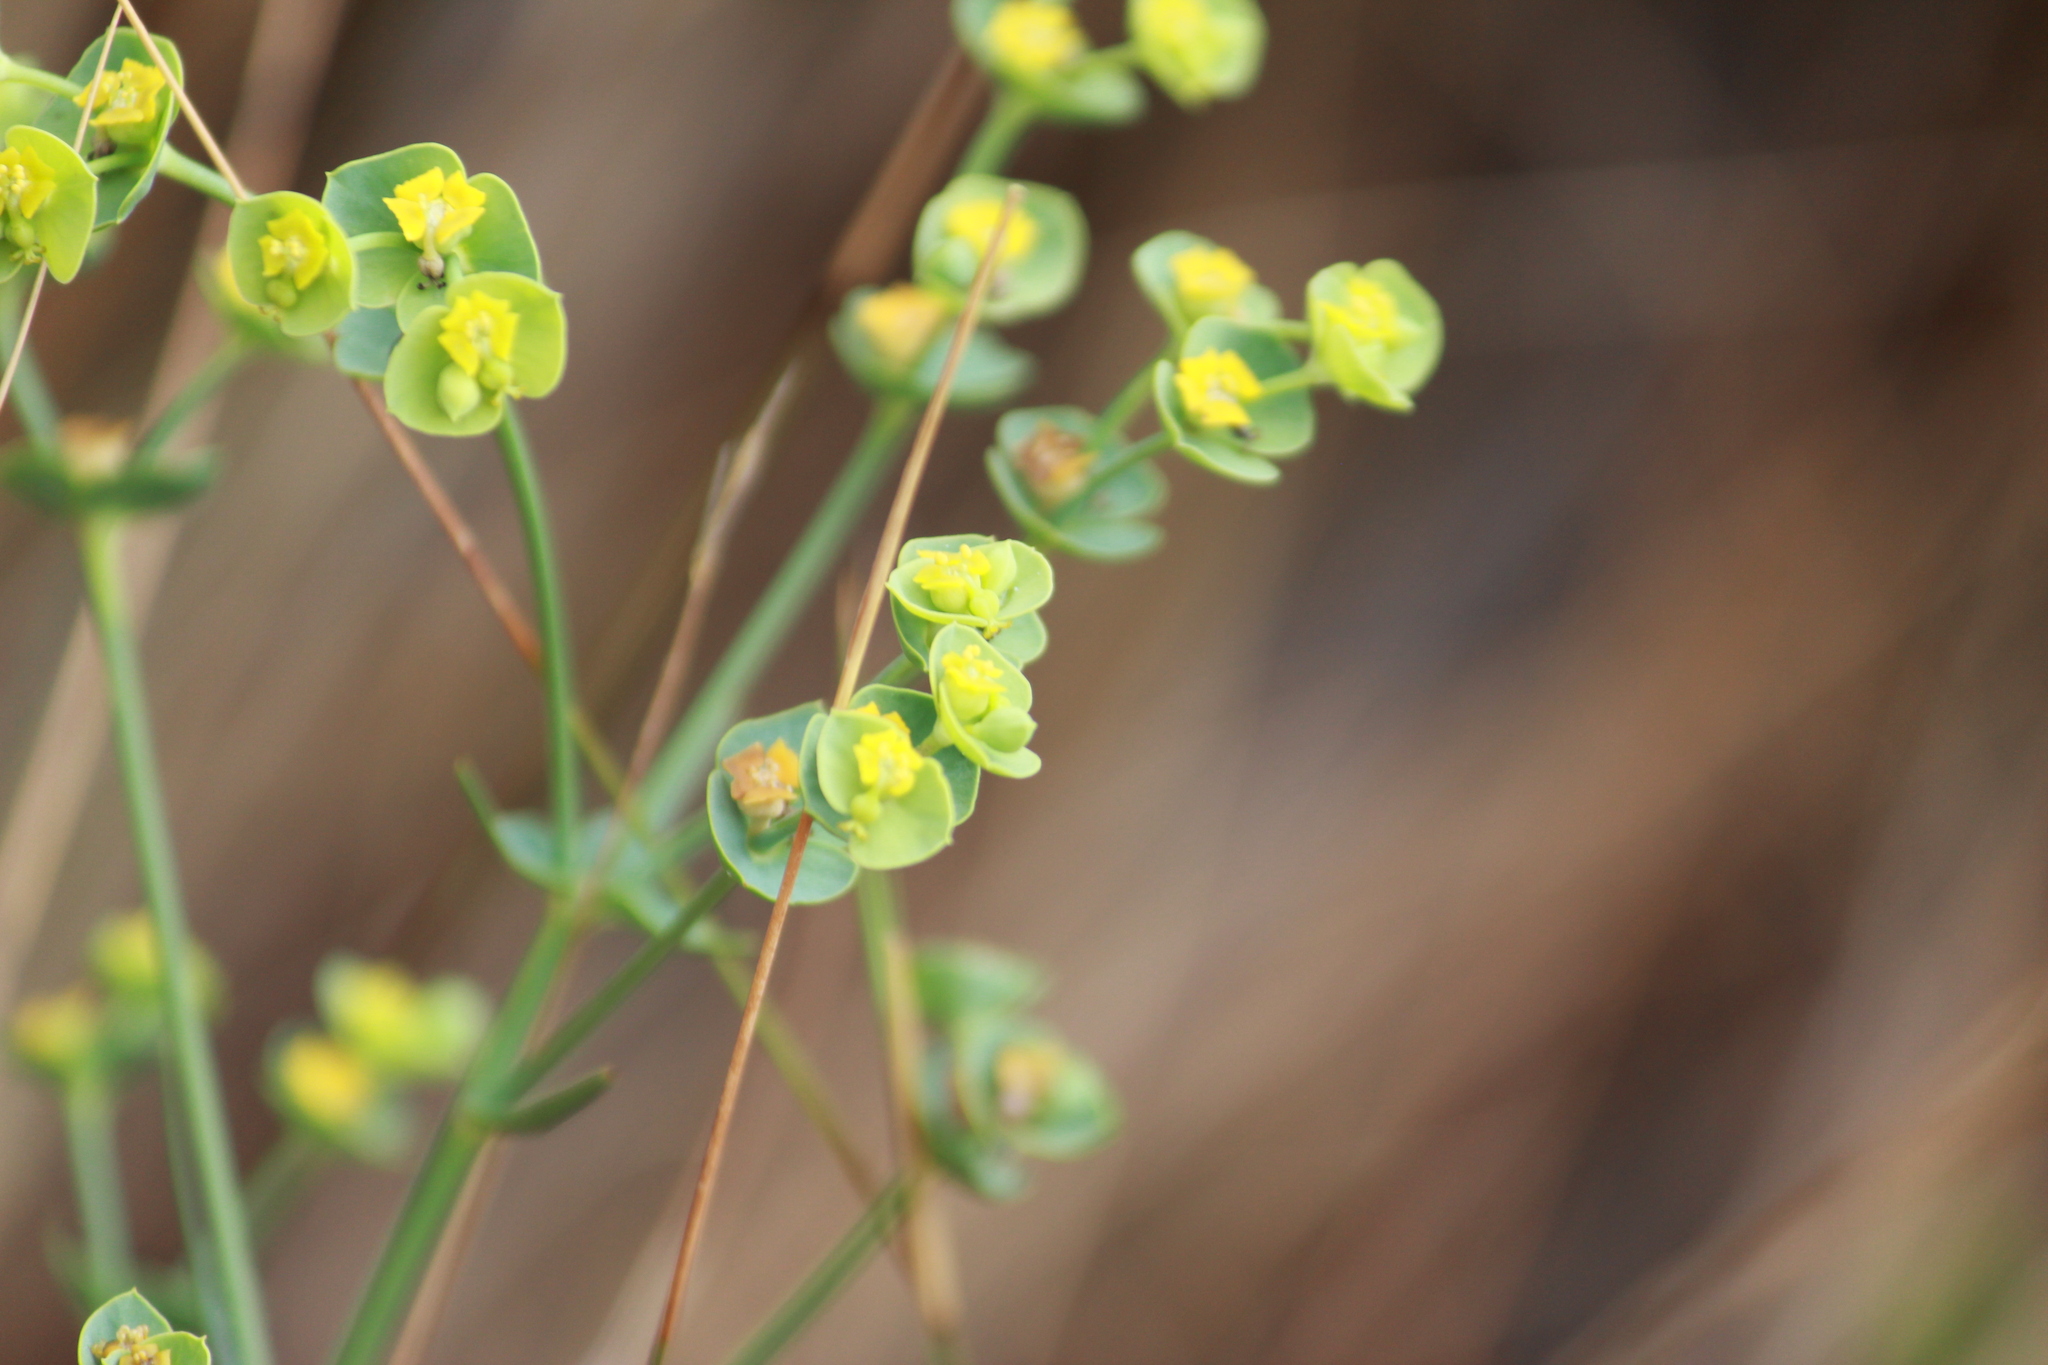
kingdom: Plantae
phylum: Tracheophyta
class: Magnoliopsida
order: Malpighiales
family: Euphorbiaceae
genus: Euphorbia
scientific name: Euphorbia striata
